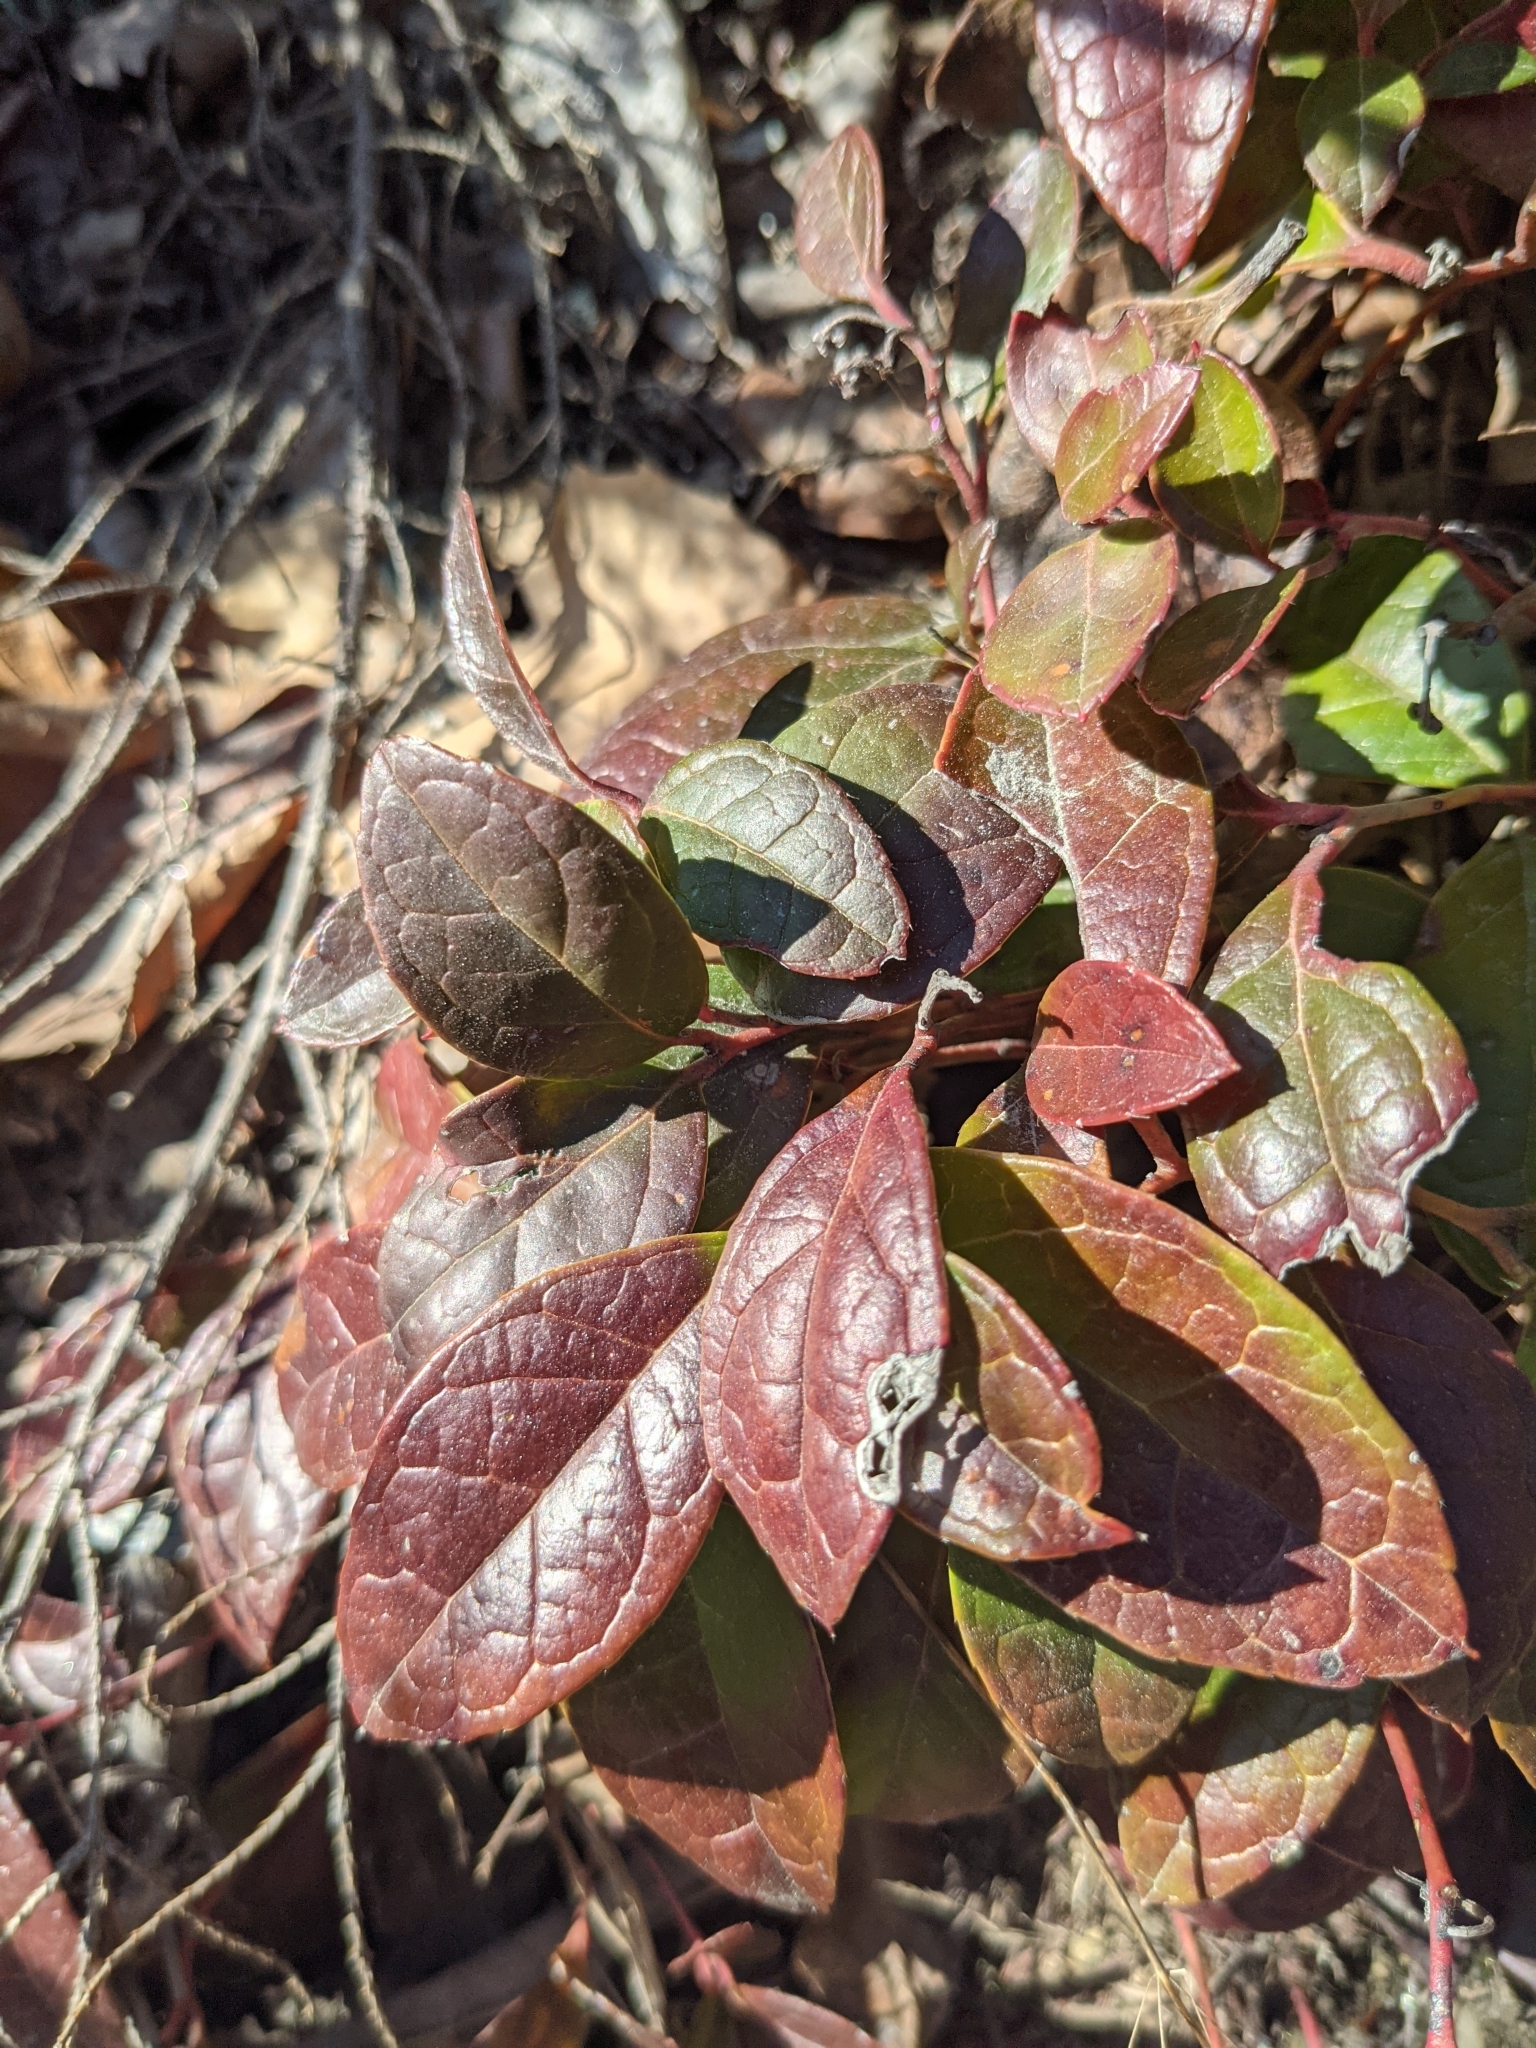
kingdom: Plantae
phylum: Tracheophyta
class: Magnoliopsida
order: Ericales
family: Ericaceae
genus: Gaultheria
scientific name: Gaultheria procumbens
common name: Checkerberry
